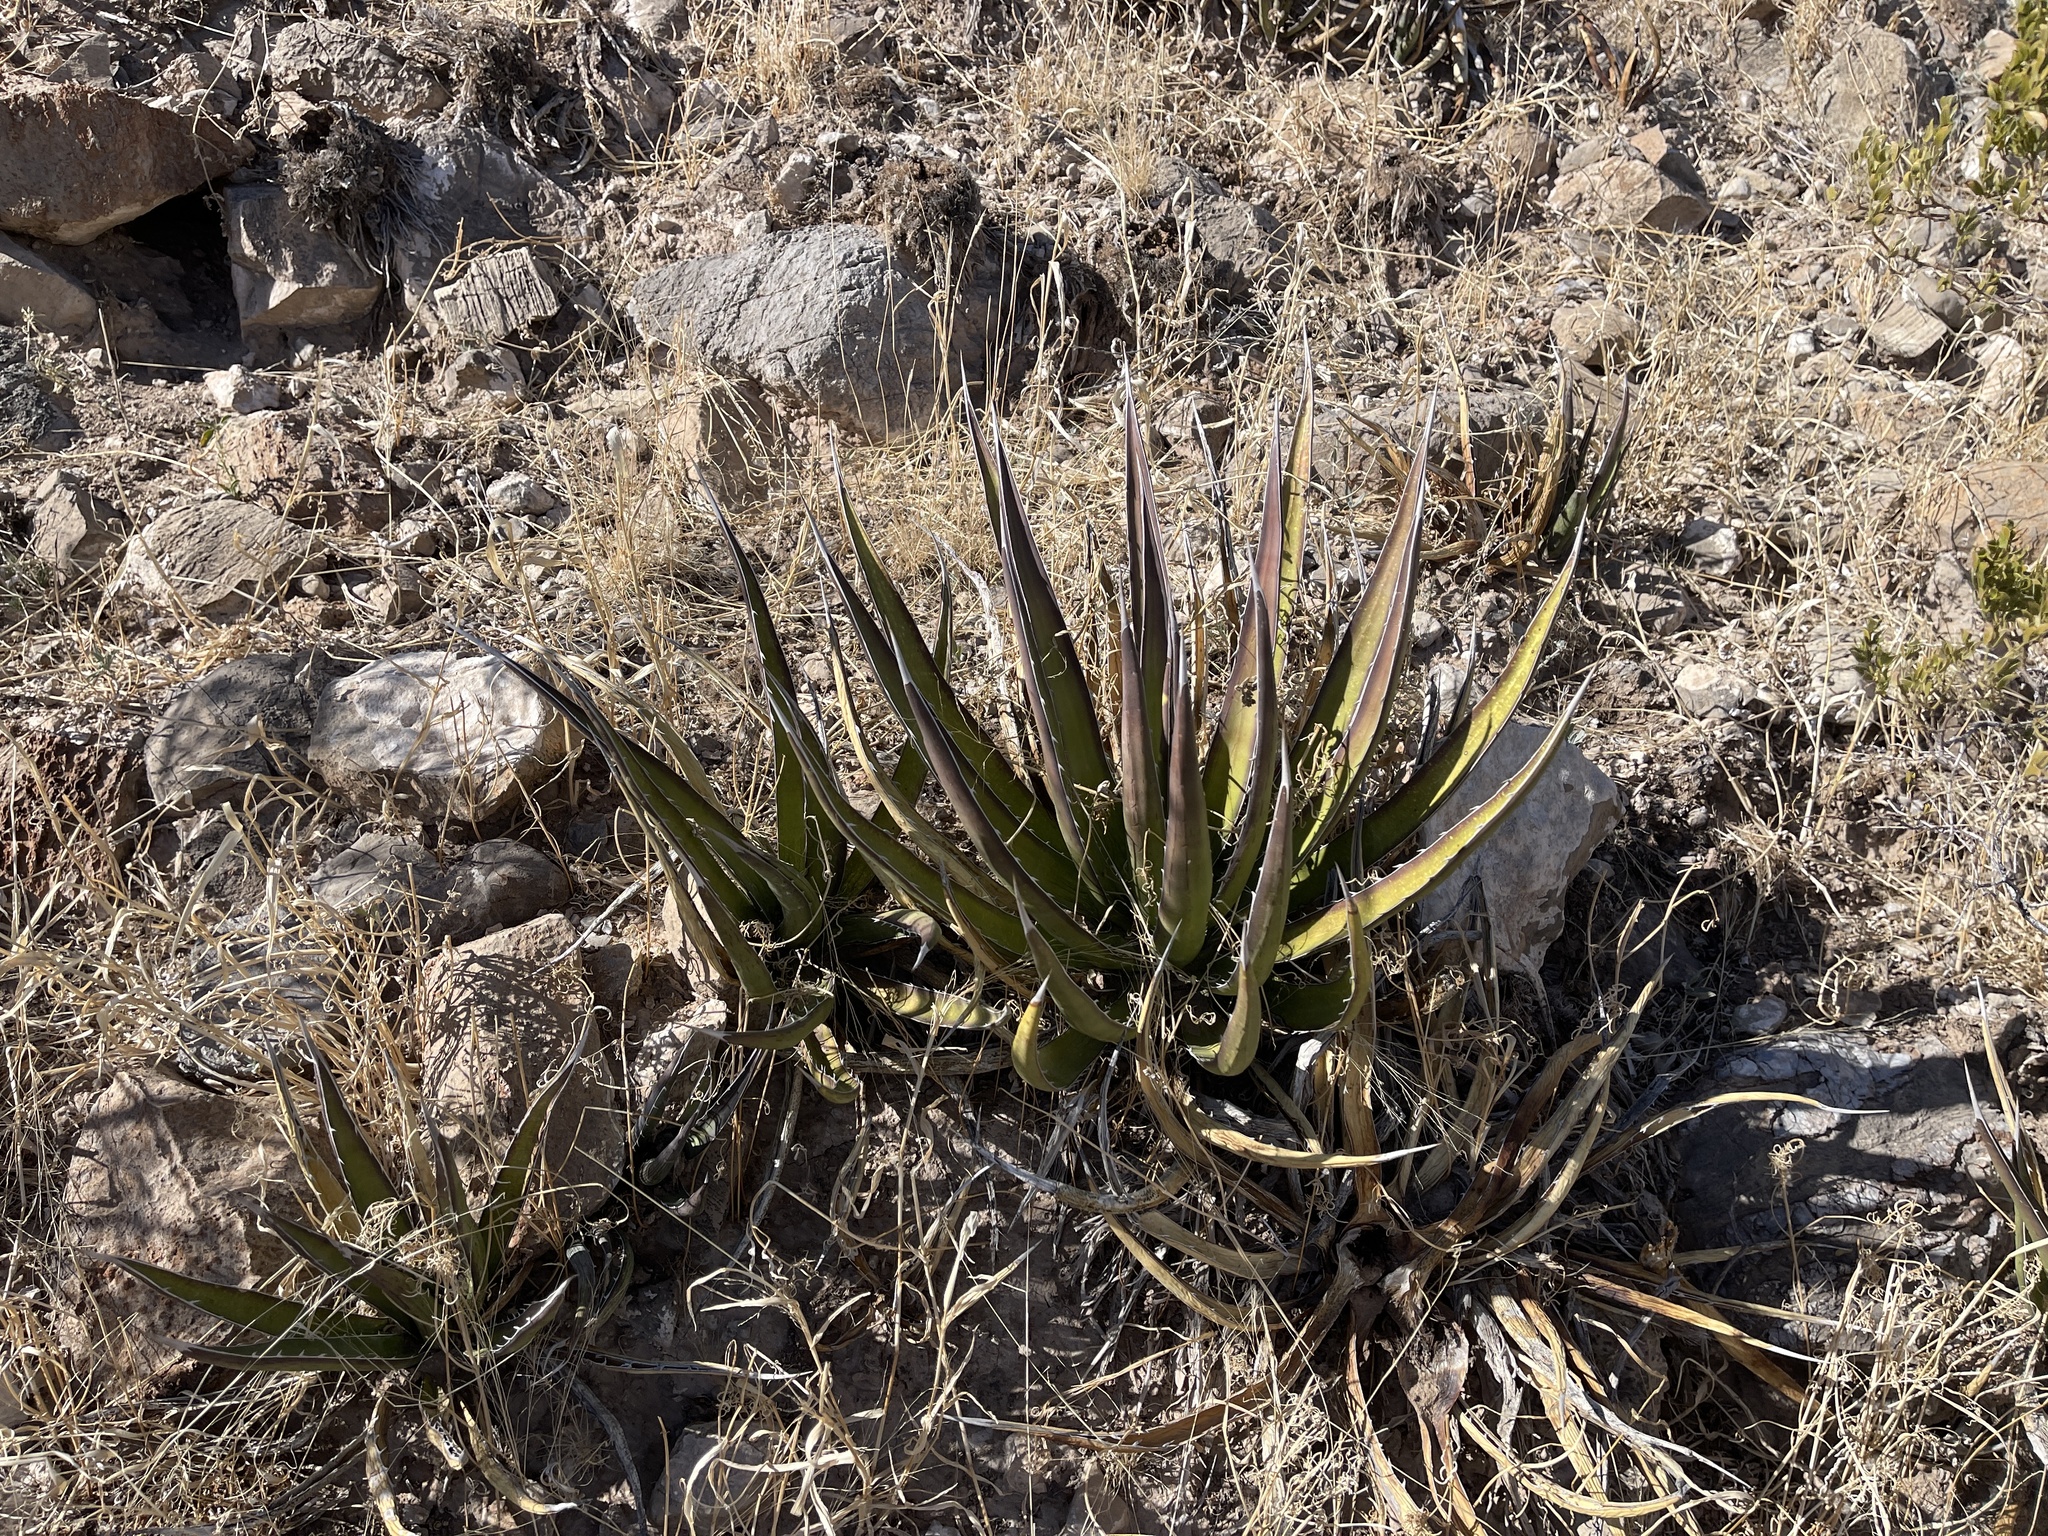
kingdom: Plantae
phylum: Tracheophyta
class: Liliopsida
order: Asparagales
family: Asparagaceae
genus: Agave
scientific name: Agave lechuguilla
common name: Lecheguilla agave
